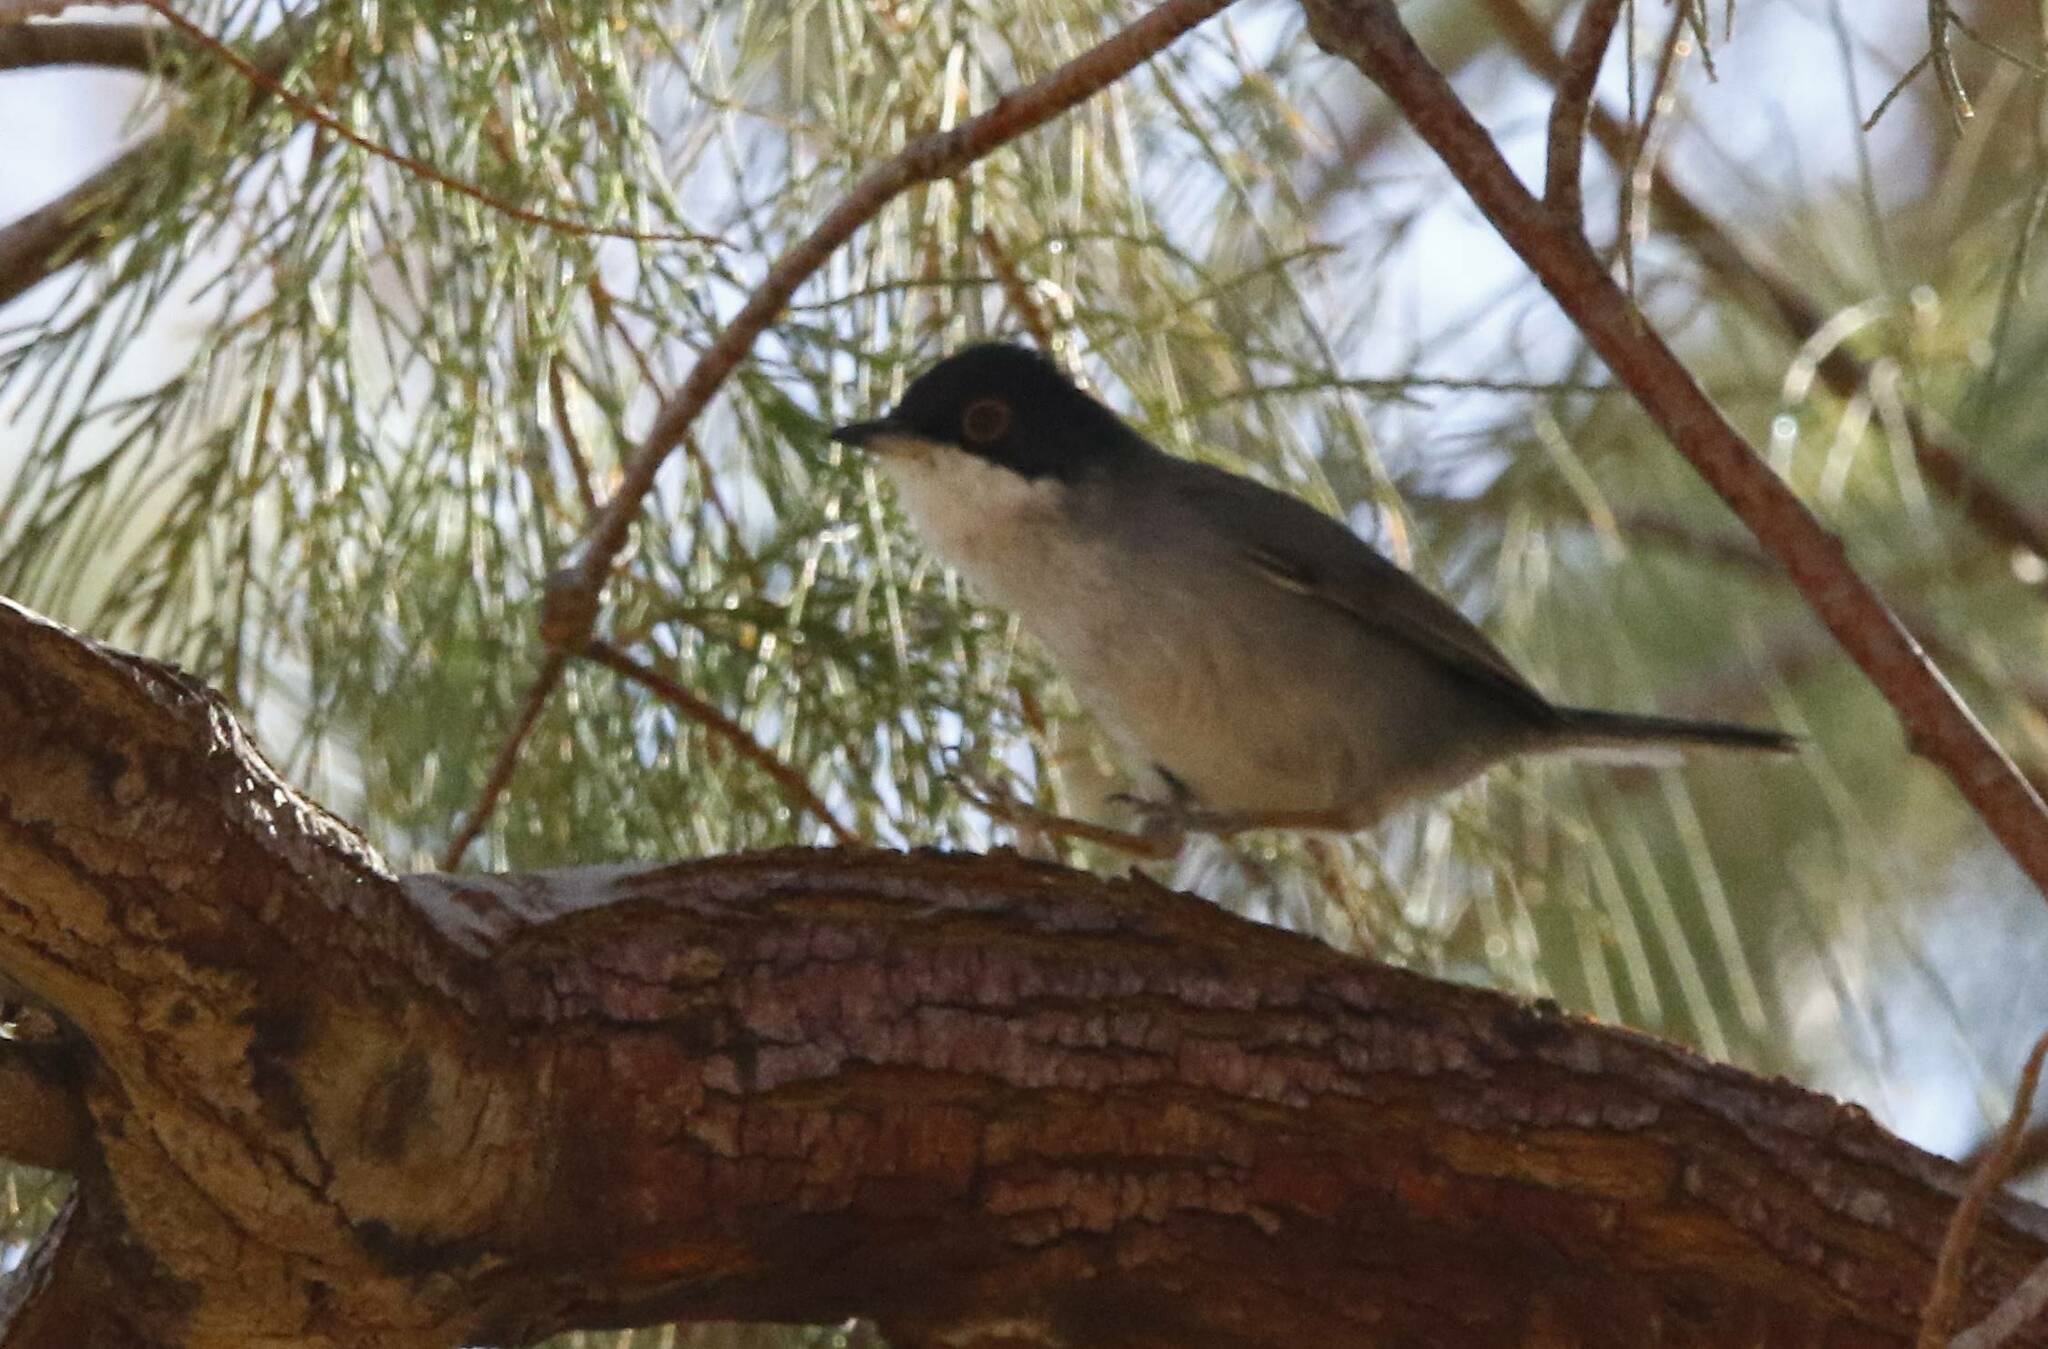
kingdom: Animalia
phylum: Chordata
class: Aves
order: Passeriformes
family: Sylviidae
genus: Curruca
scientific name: Curruca melanocephala
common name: Sardinian warbler
